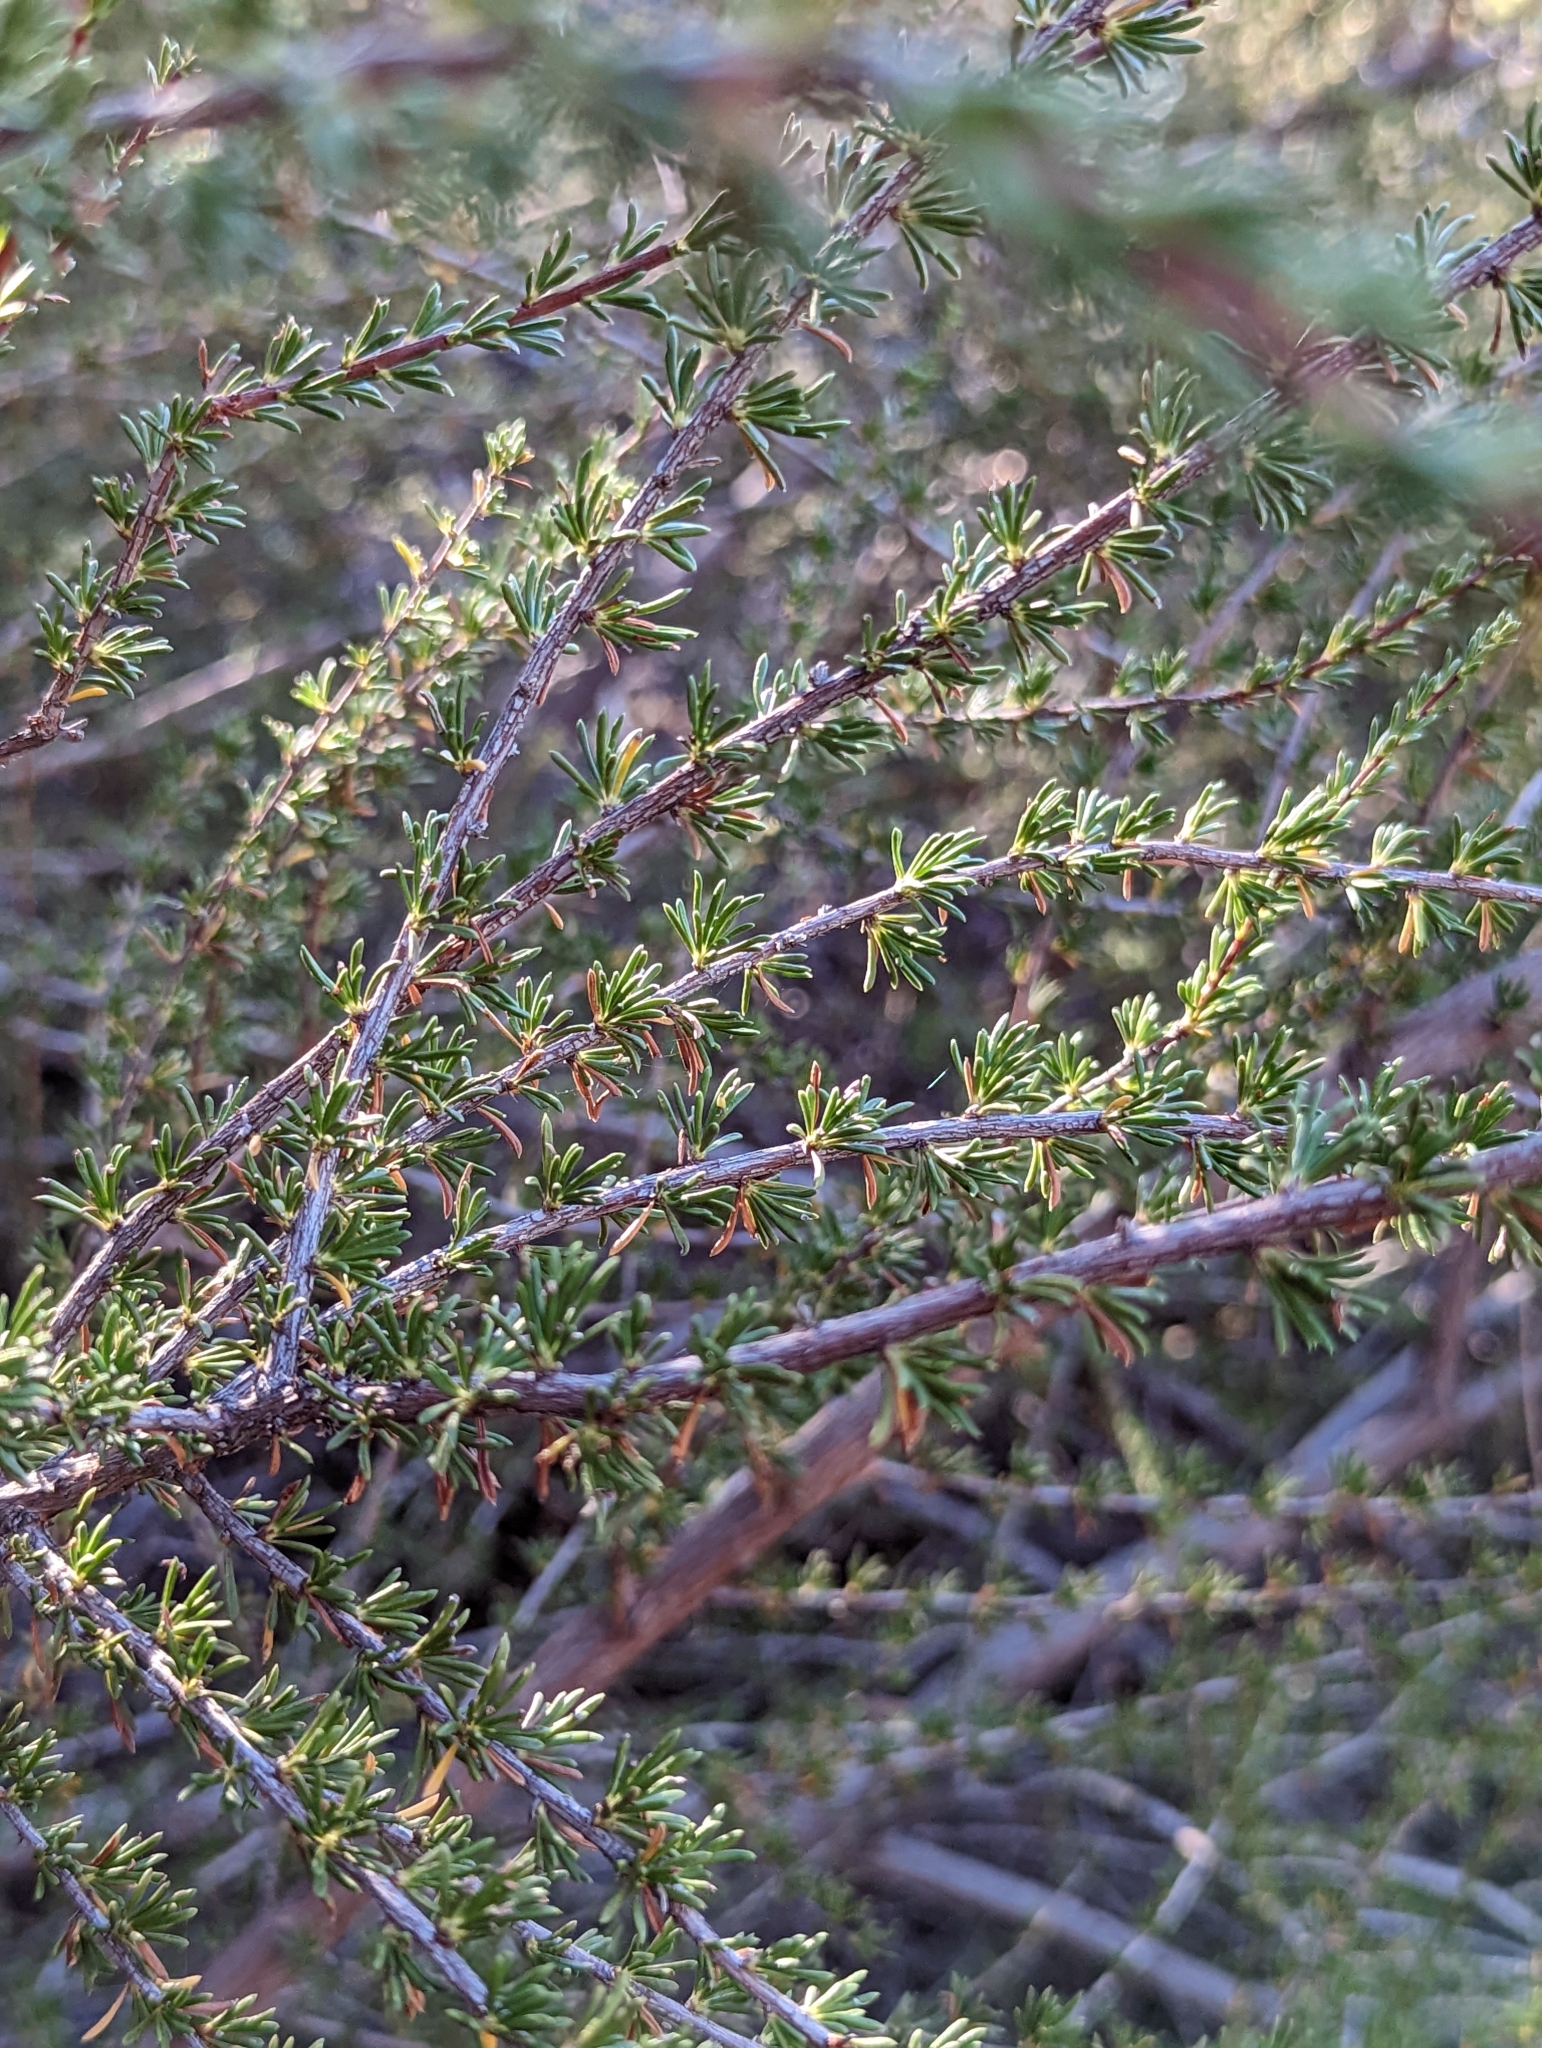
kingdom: Plantae
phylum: Tracheophyta
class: Magnoliopsida
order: Rosales
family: Rosaceae
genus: Adenostoma
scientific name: Adenostoma fasciculatum
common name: Chamise
